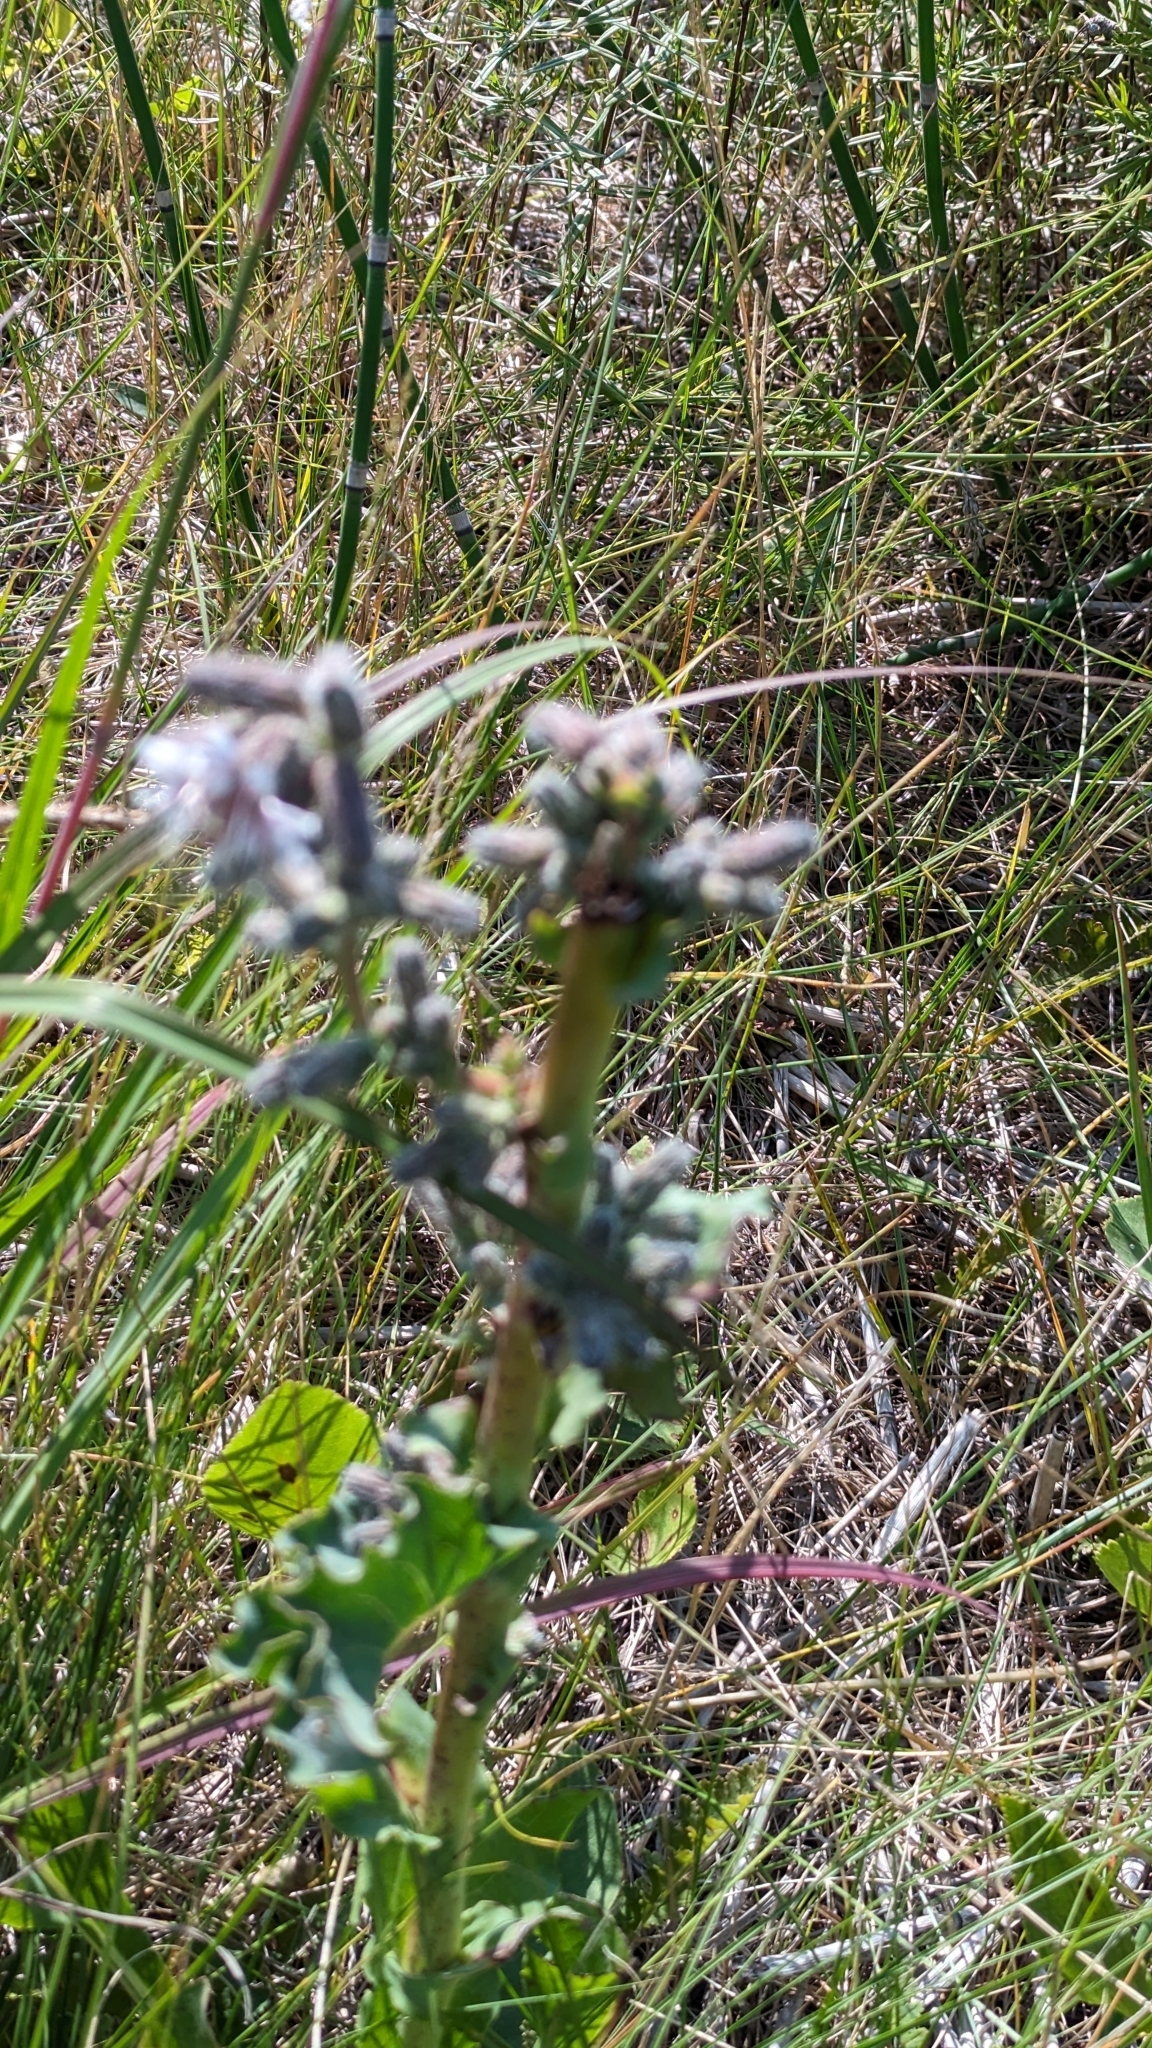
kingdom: Plantae
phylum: Tracheophyta
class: Magnoliopsida
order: Asterales
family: Asteraceae
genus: Nabalus
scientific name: Nabalus racemosus
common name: Glaucous white lettuce
